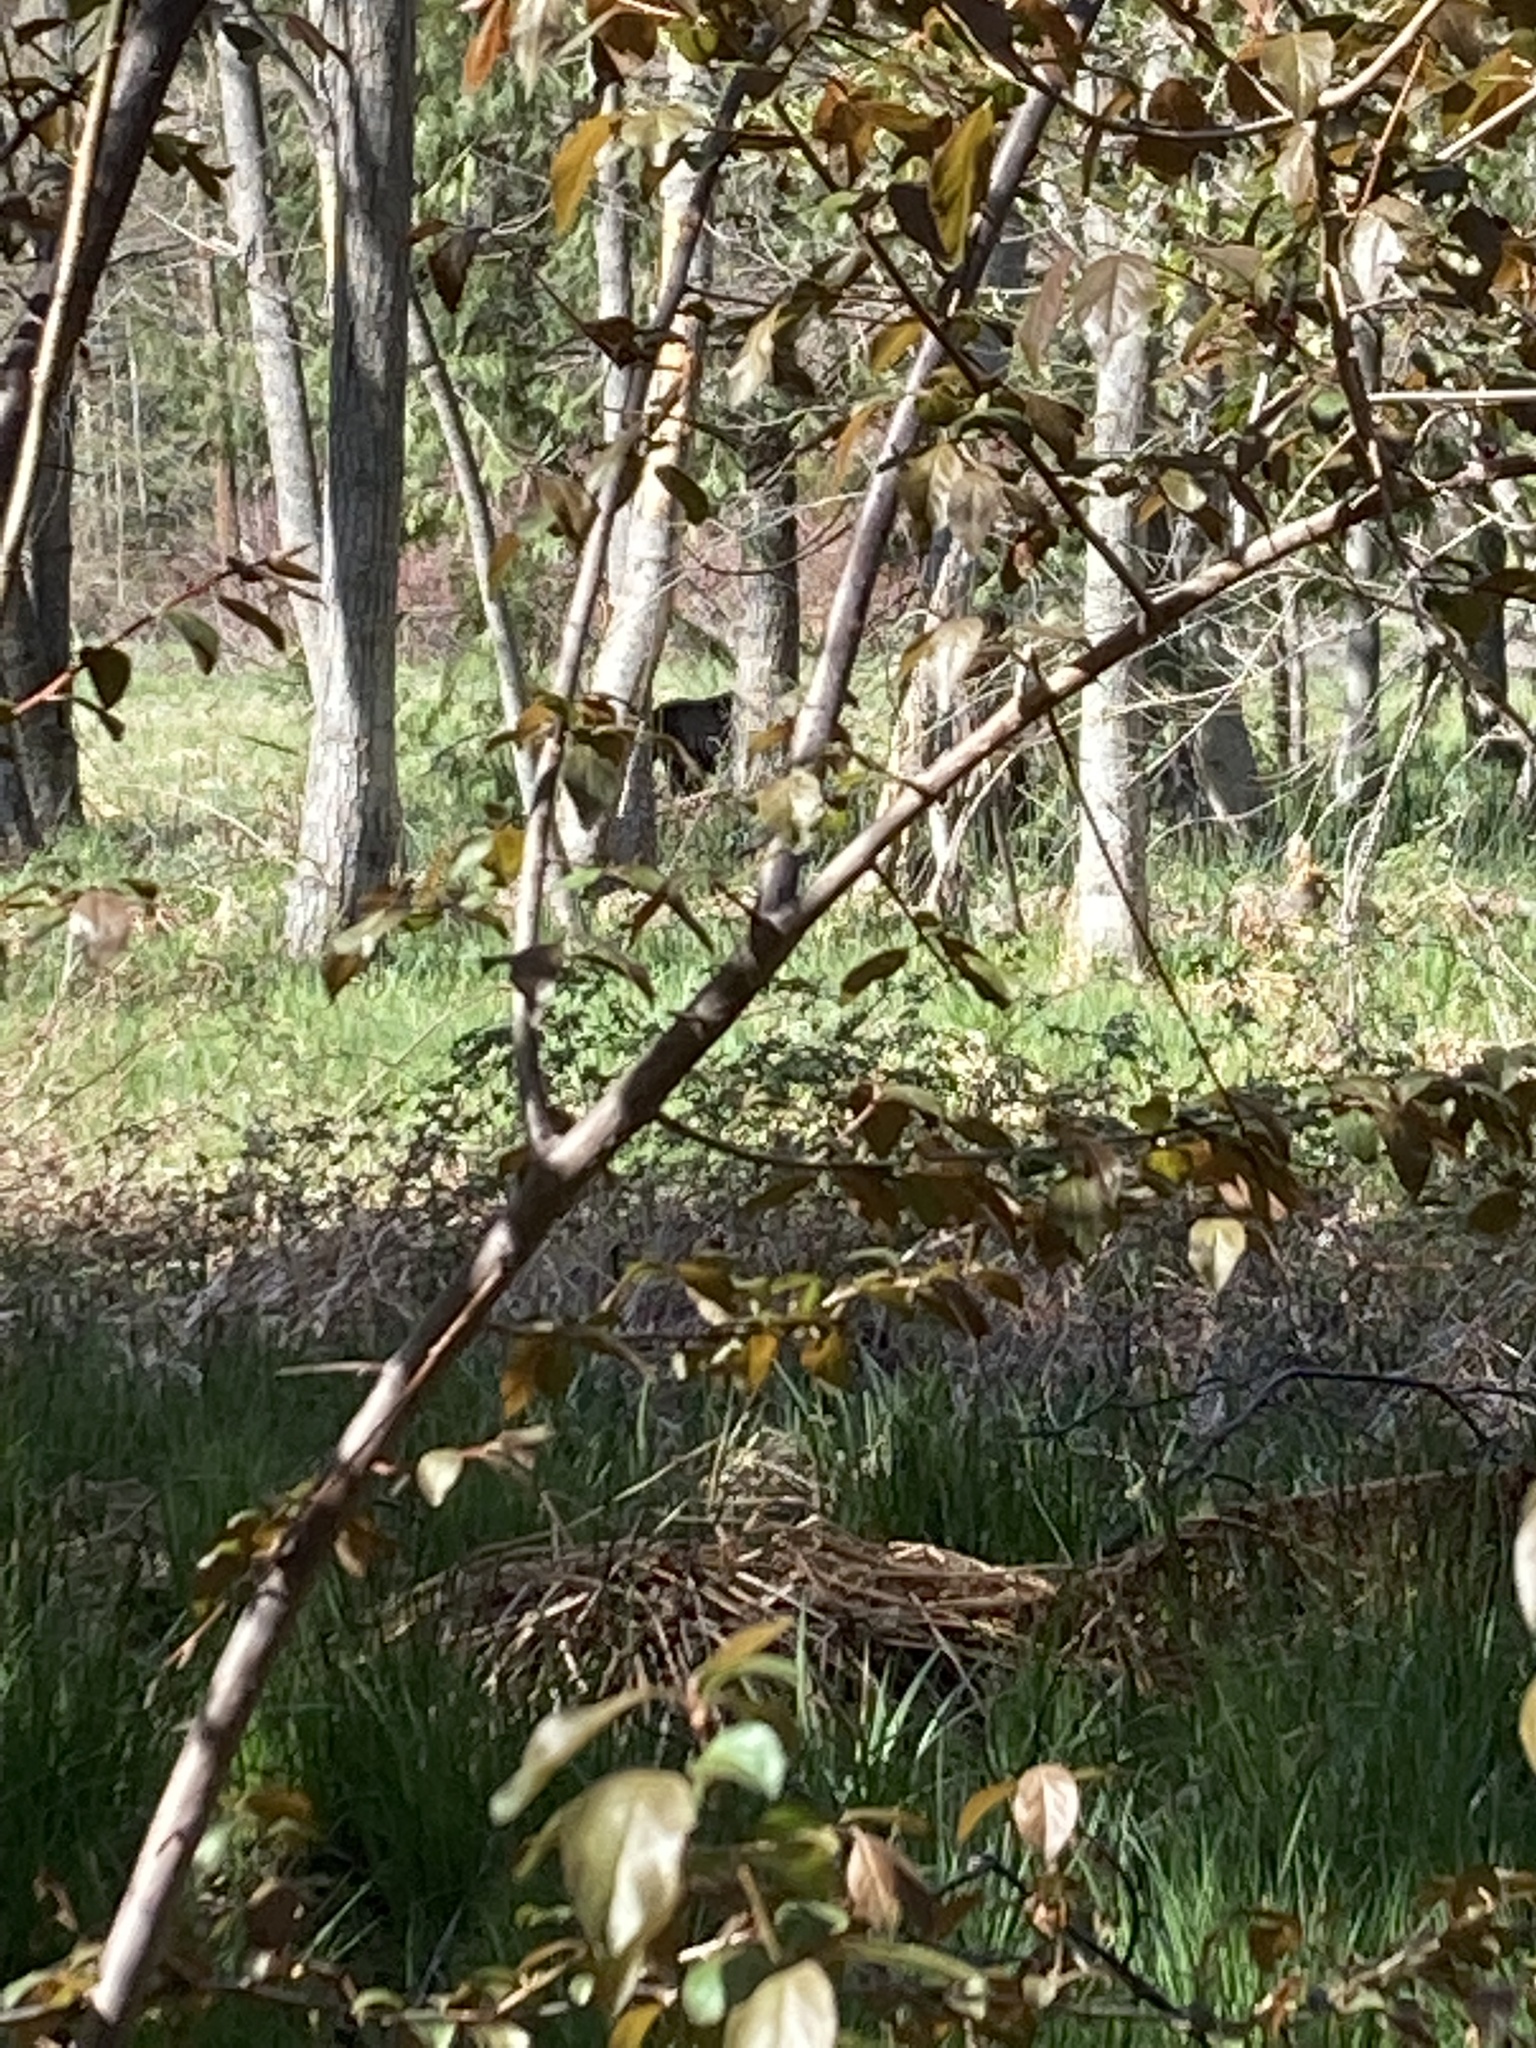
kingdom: Animalia
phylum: Chordata
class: Mammalia
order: Carnivora
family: Ursidae
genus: Ursus
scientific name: Ursus americanus
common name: American black bear
